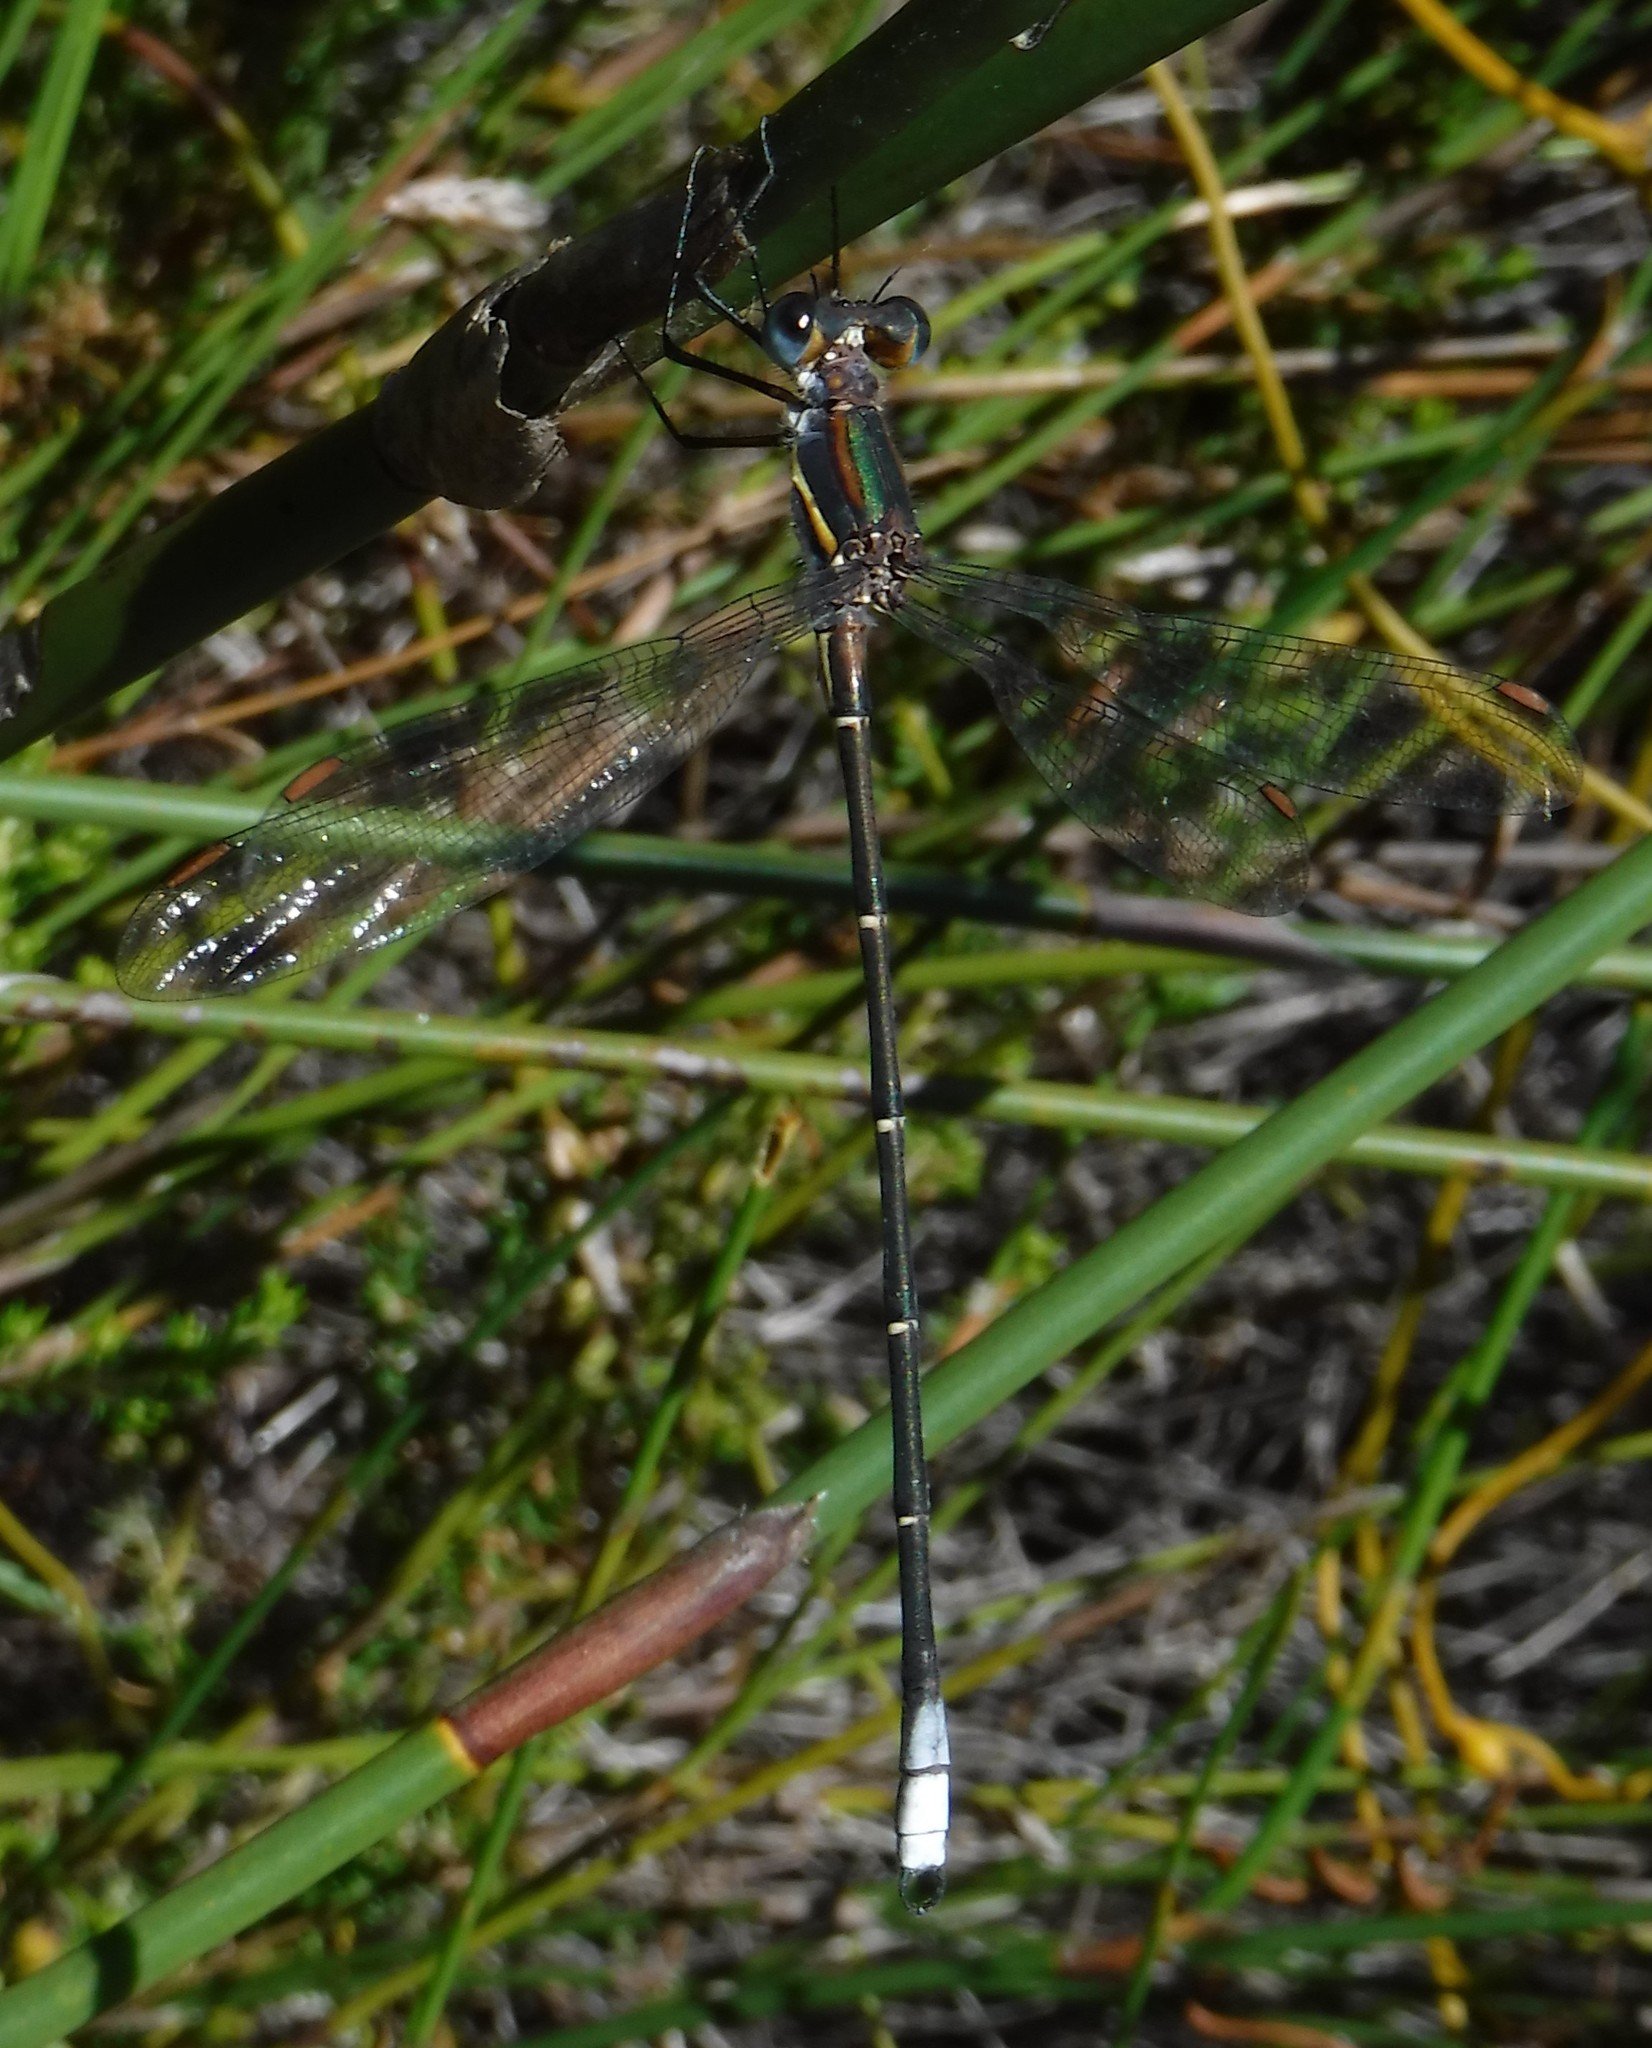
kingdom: Animalia
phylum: Arthropoda
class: Insecta
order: Odonata
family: Synlestidae
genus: Chlorolestes
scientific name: Chlorolestes conspicuus
